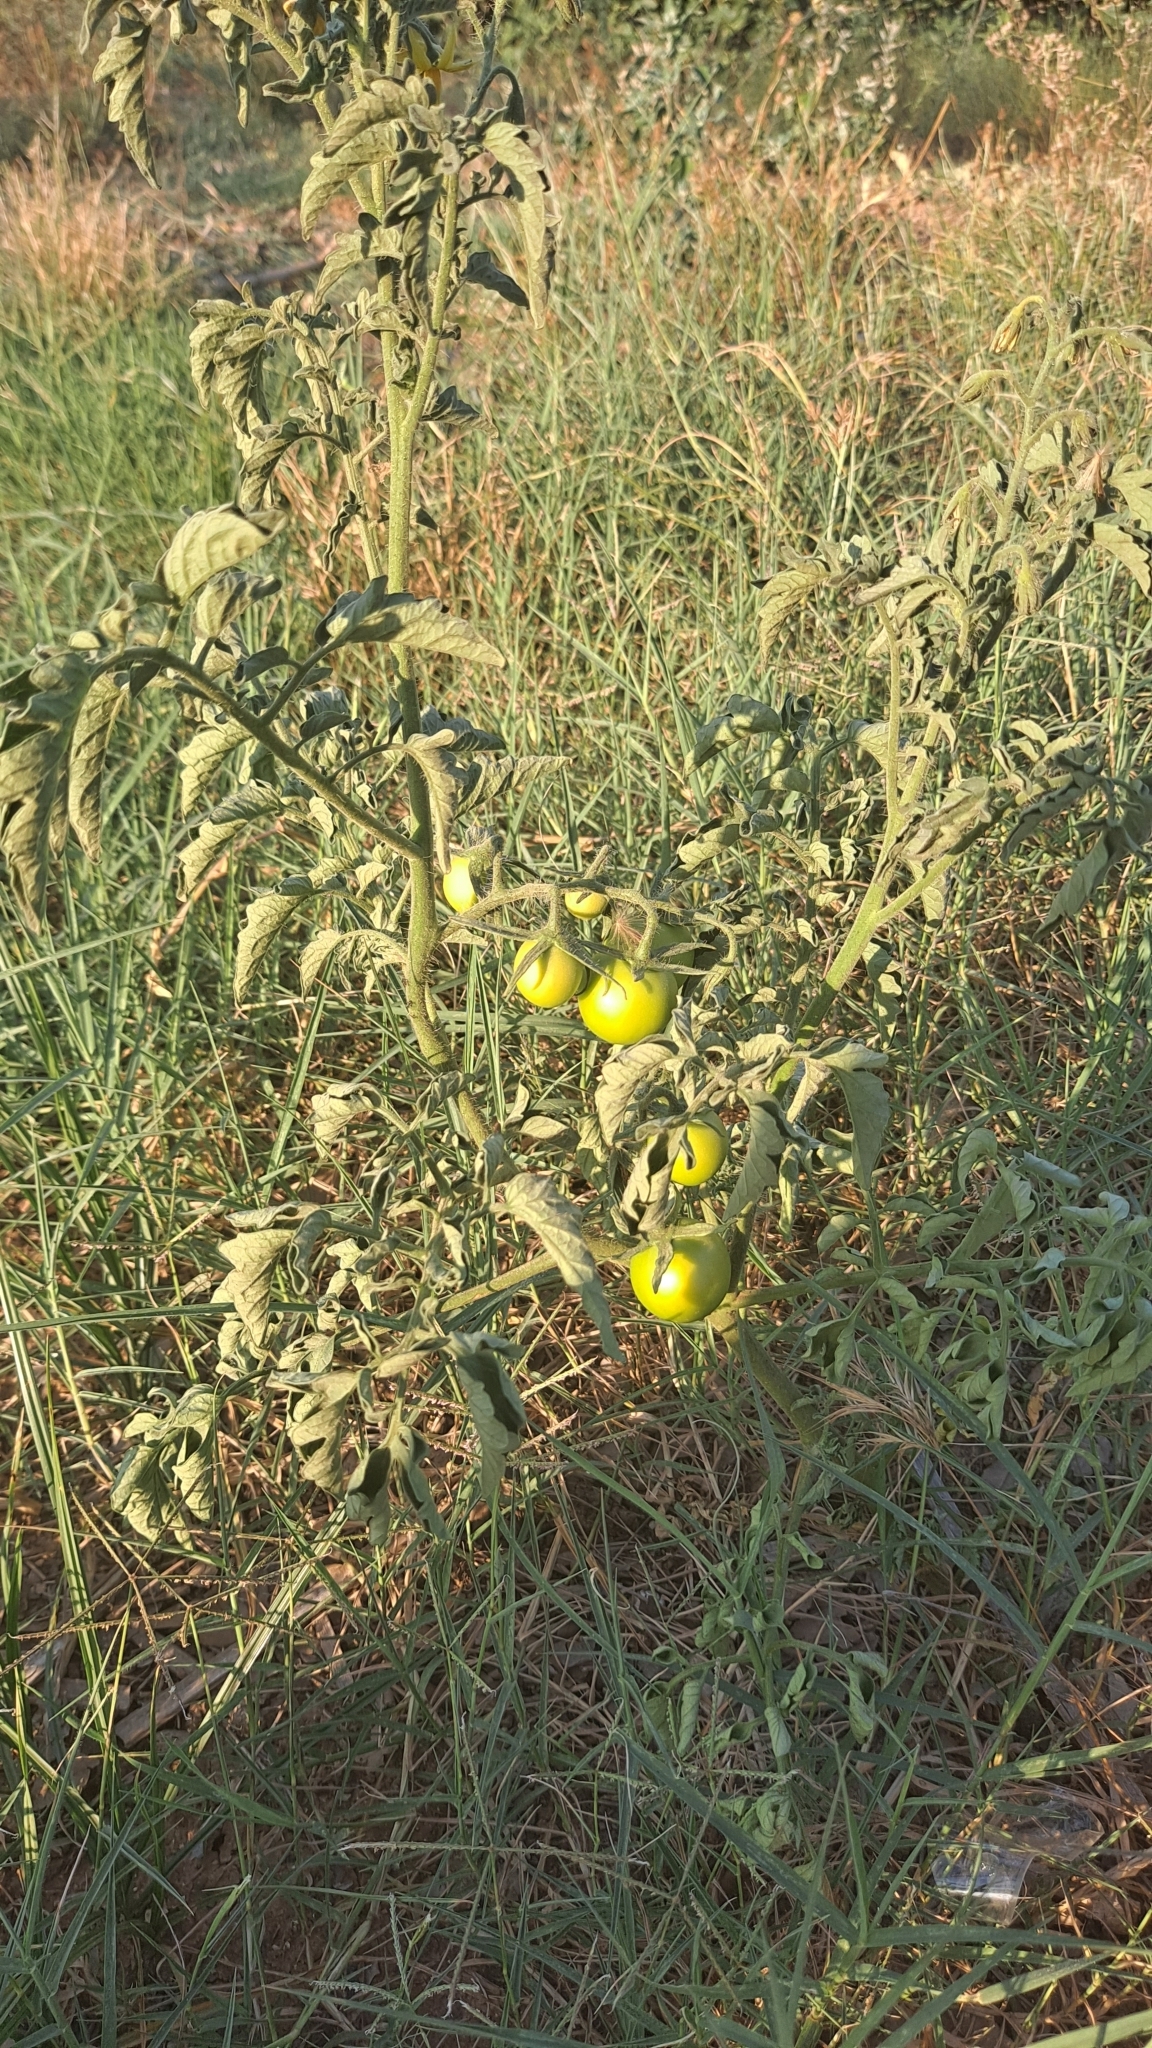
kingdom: Plantae
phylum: Tracheophyta
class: Magnoliopsida
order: Solanales
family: Solanaceae
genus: Solanum
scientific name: Solanum lycopersicum
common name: Garden tomato
